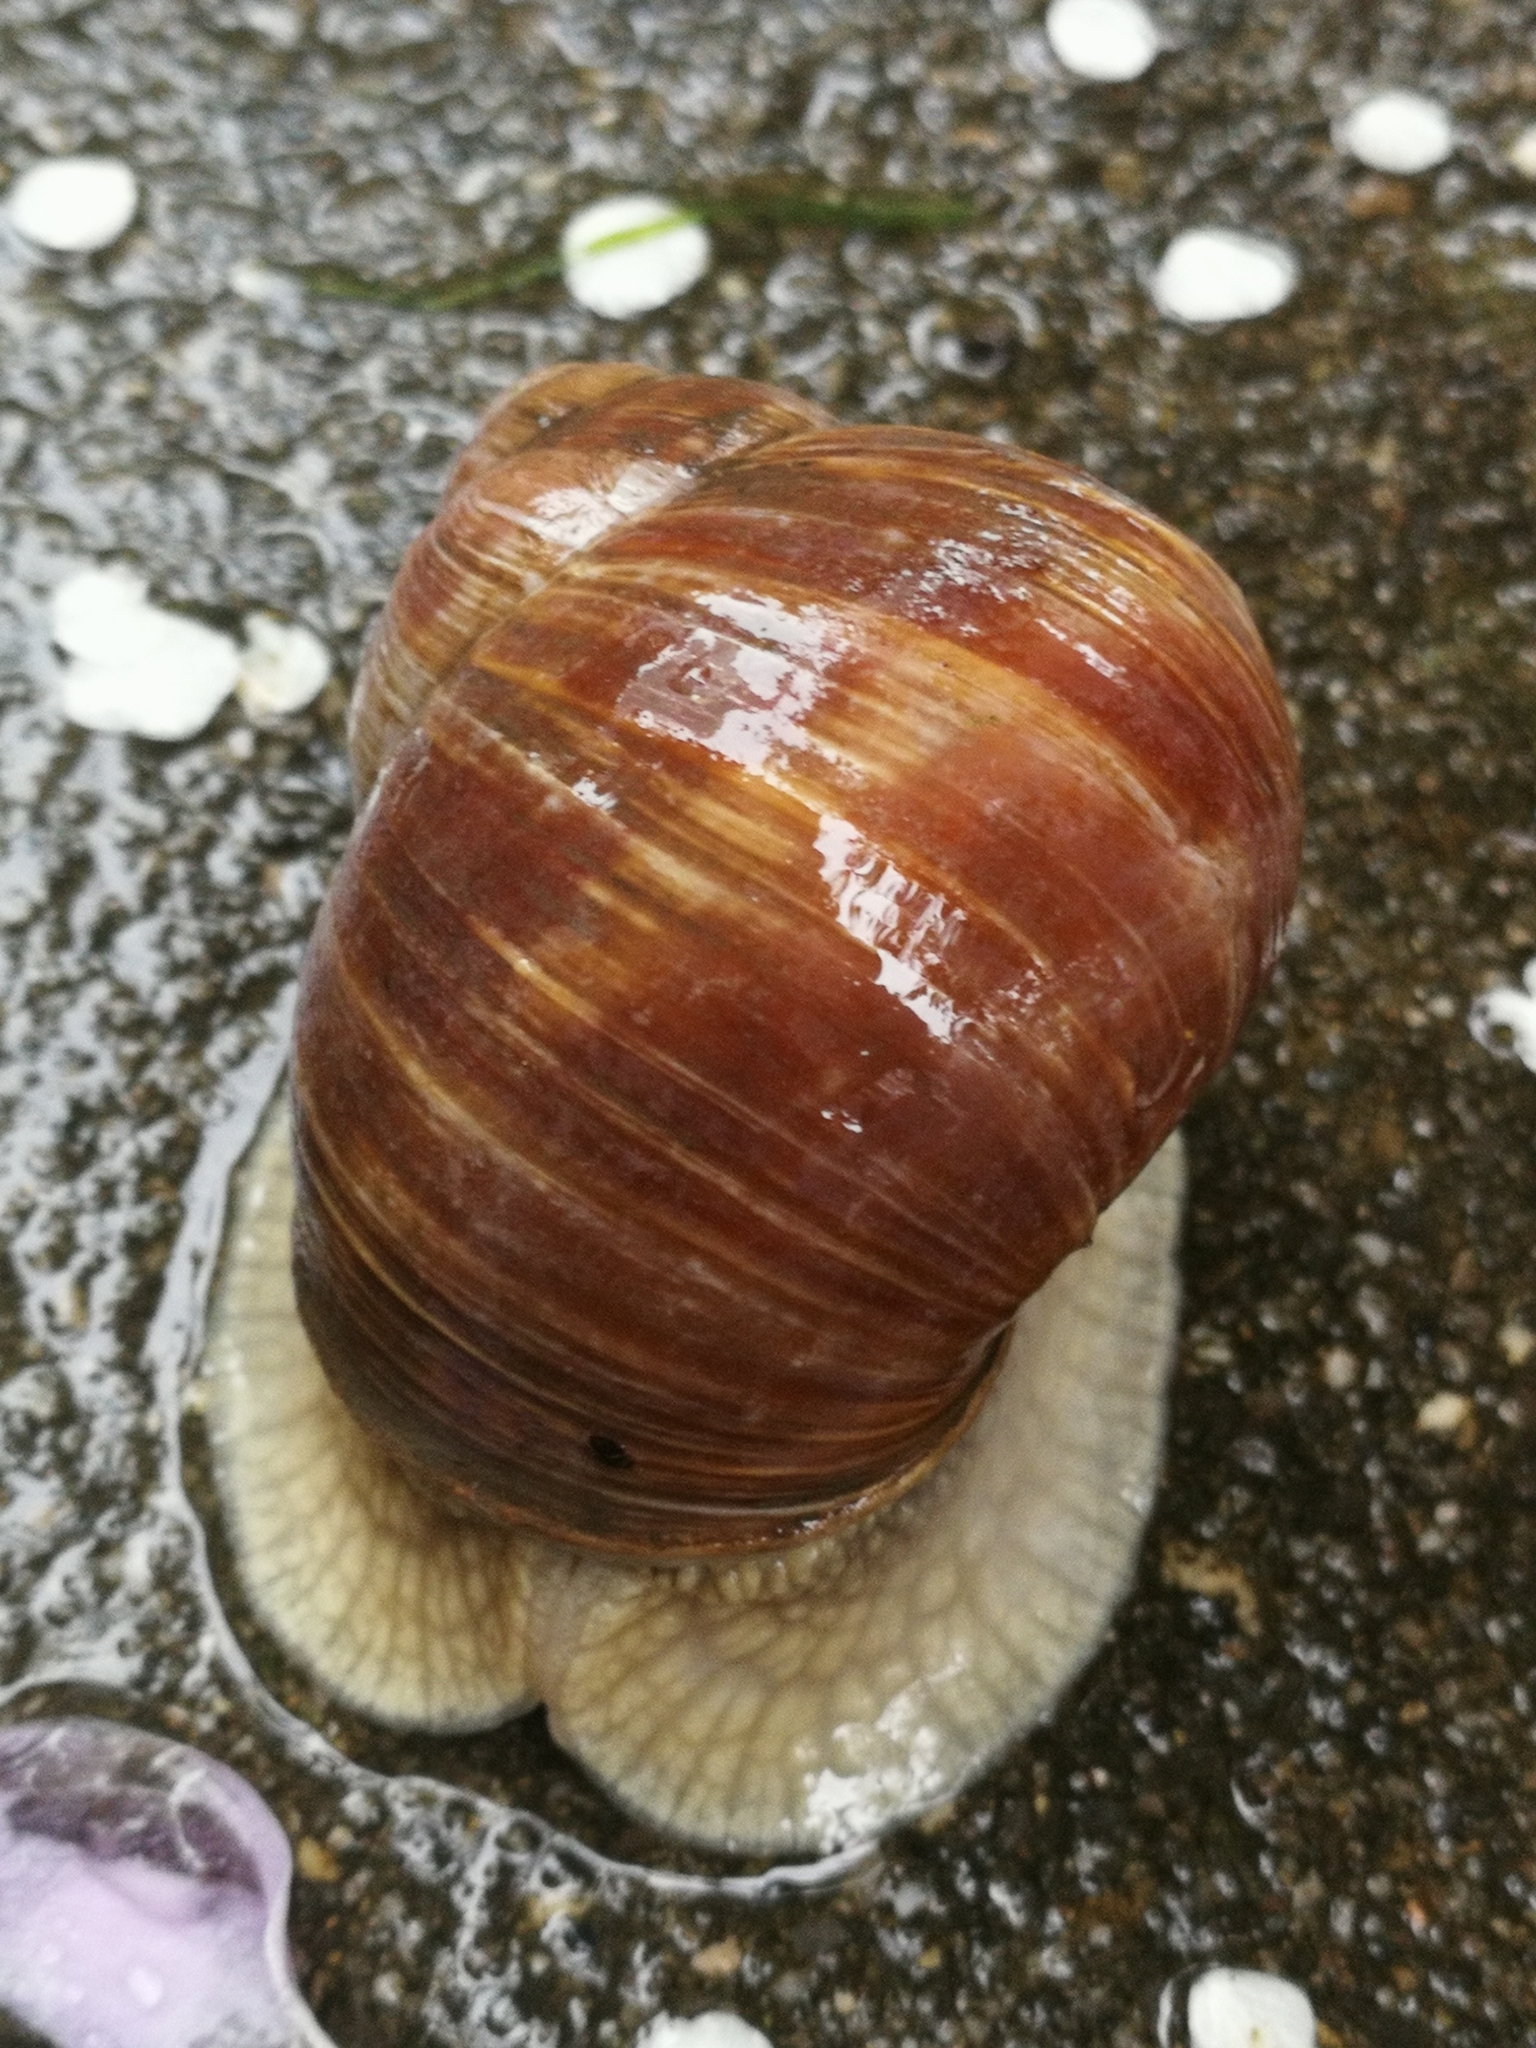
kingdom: Animalia
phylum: Mollusca
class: Gastropoda
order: Stylommatophora
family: Helicidae
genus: Helix
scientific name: Helix pomatia
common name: Roman snail
